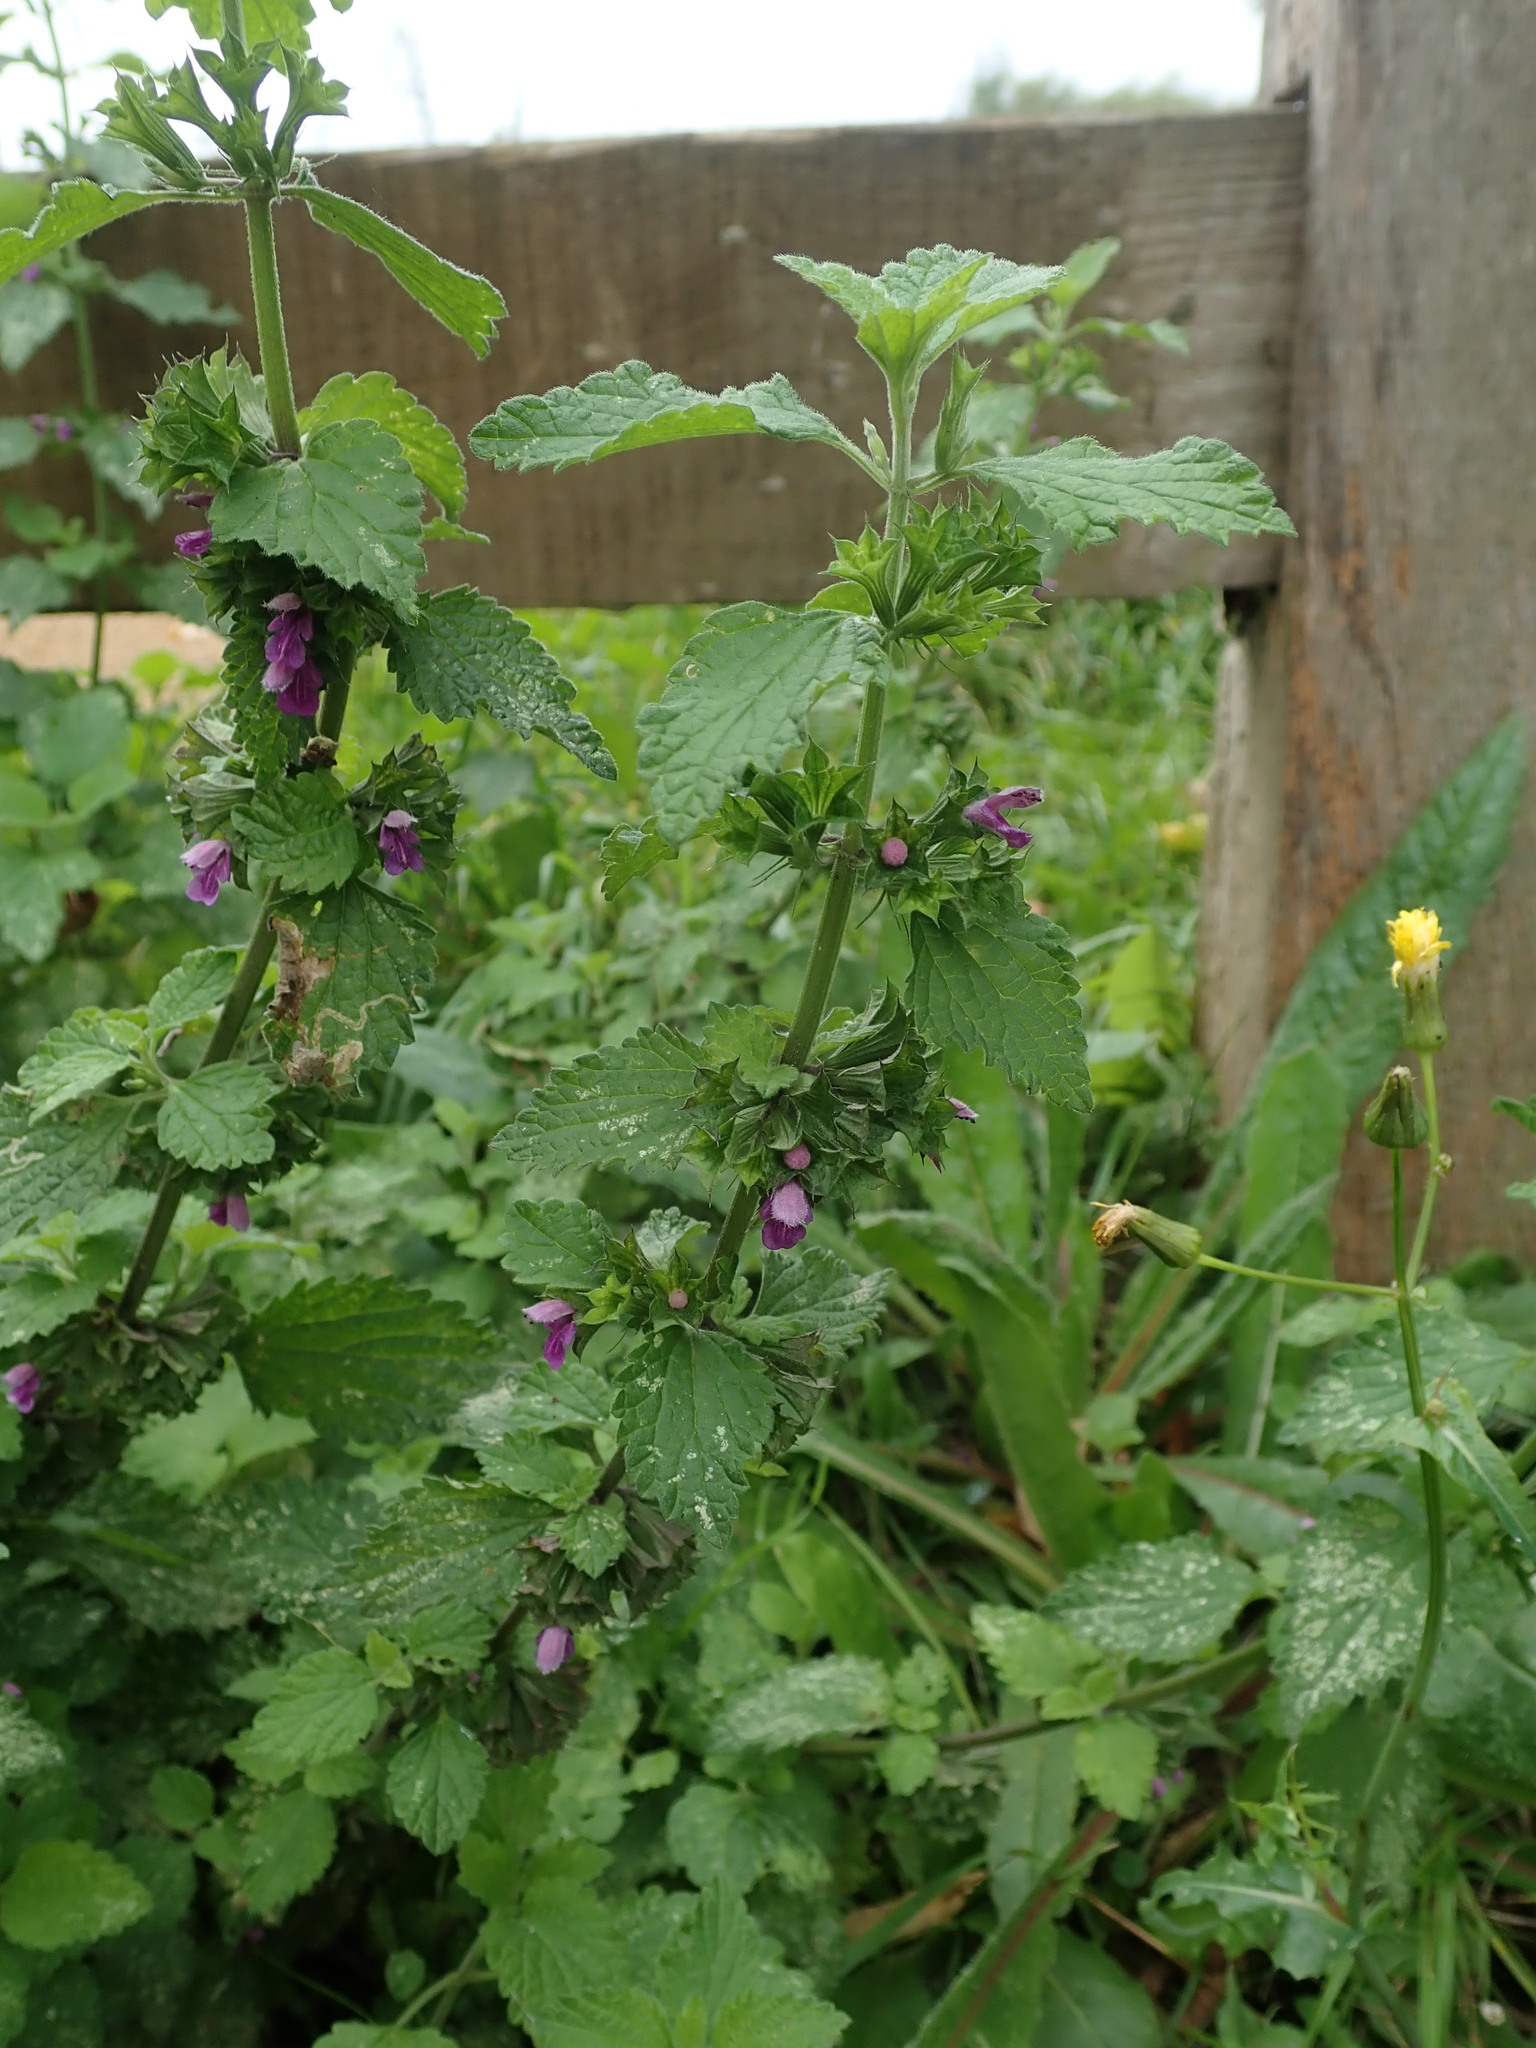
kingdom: Plantae
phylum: Tracheophyta
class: Magnoliopsida
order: Lamiales
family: Lamiaceae
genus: Ballota
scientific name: Ballota nigra
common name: Black horehound
